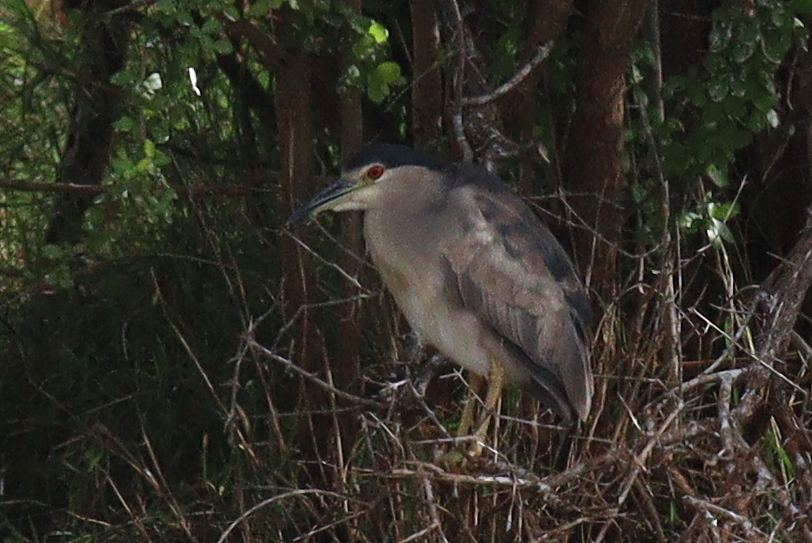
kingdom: Animalia
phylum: Chordata
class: Aves
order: Pelecaniformes
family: Ardeidae
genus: Nycticorax
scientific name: Nycticorax nycticorax
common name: Black-crowned night heron
